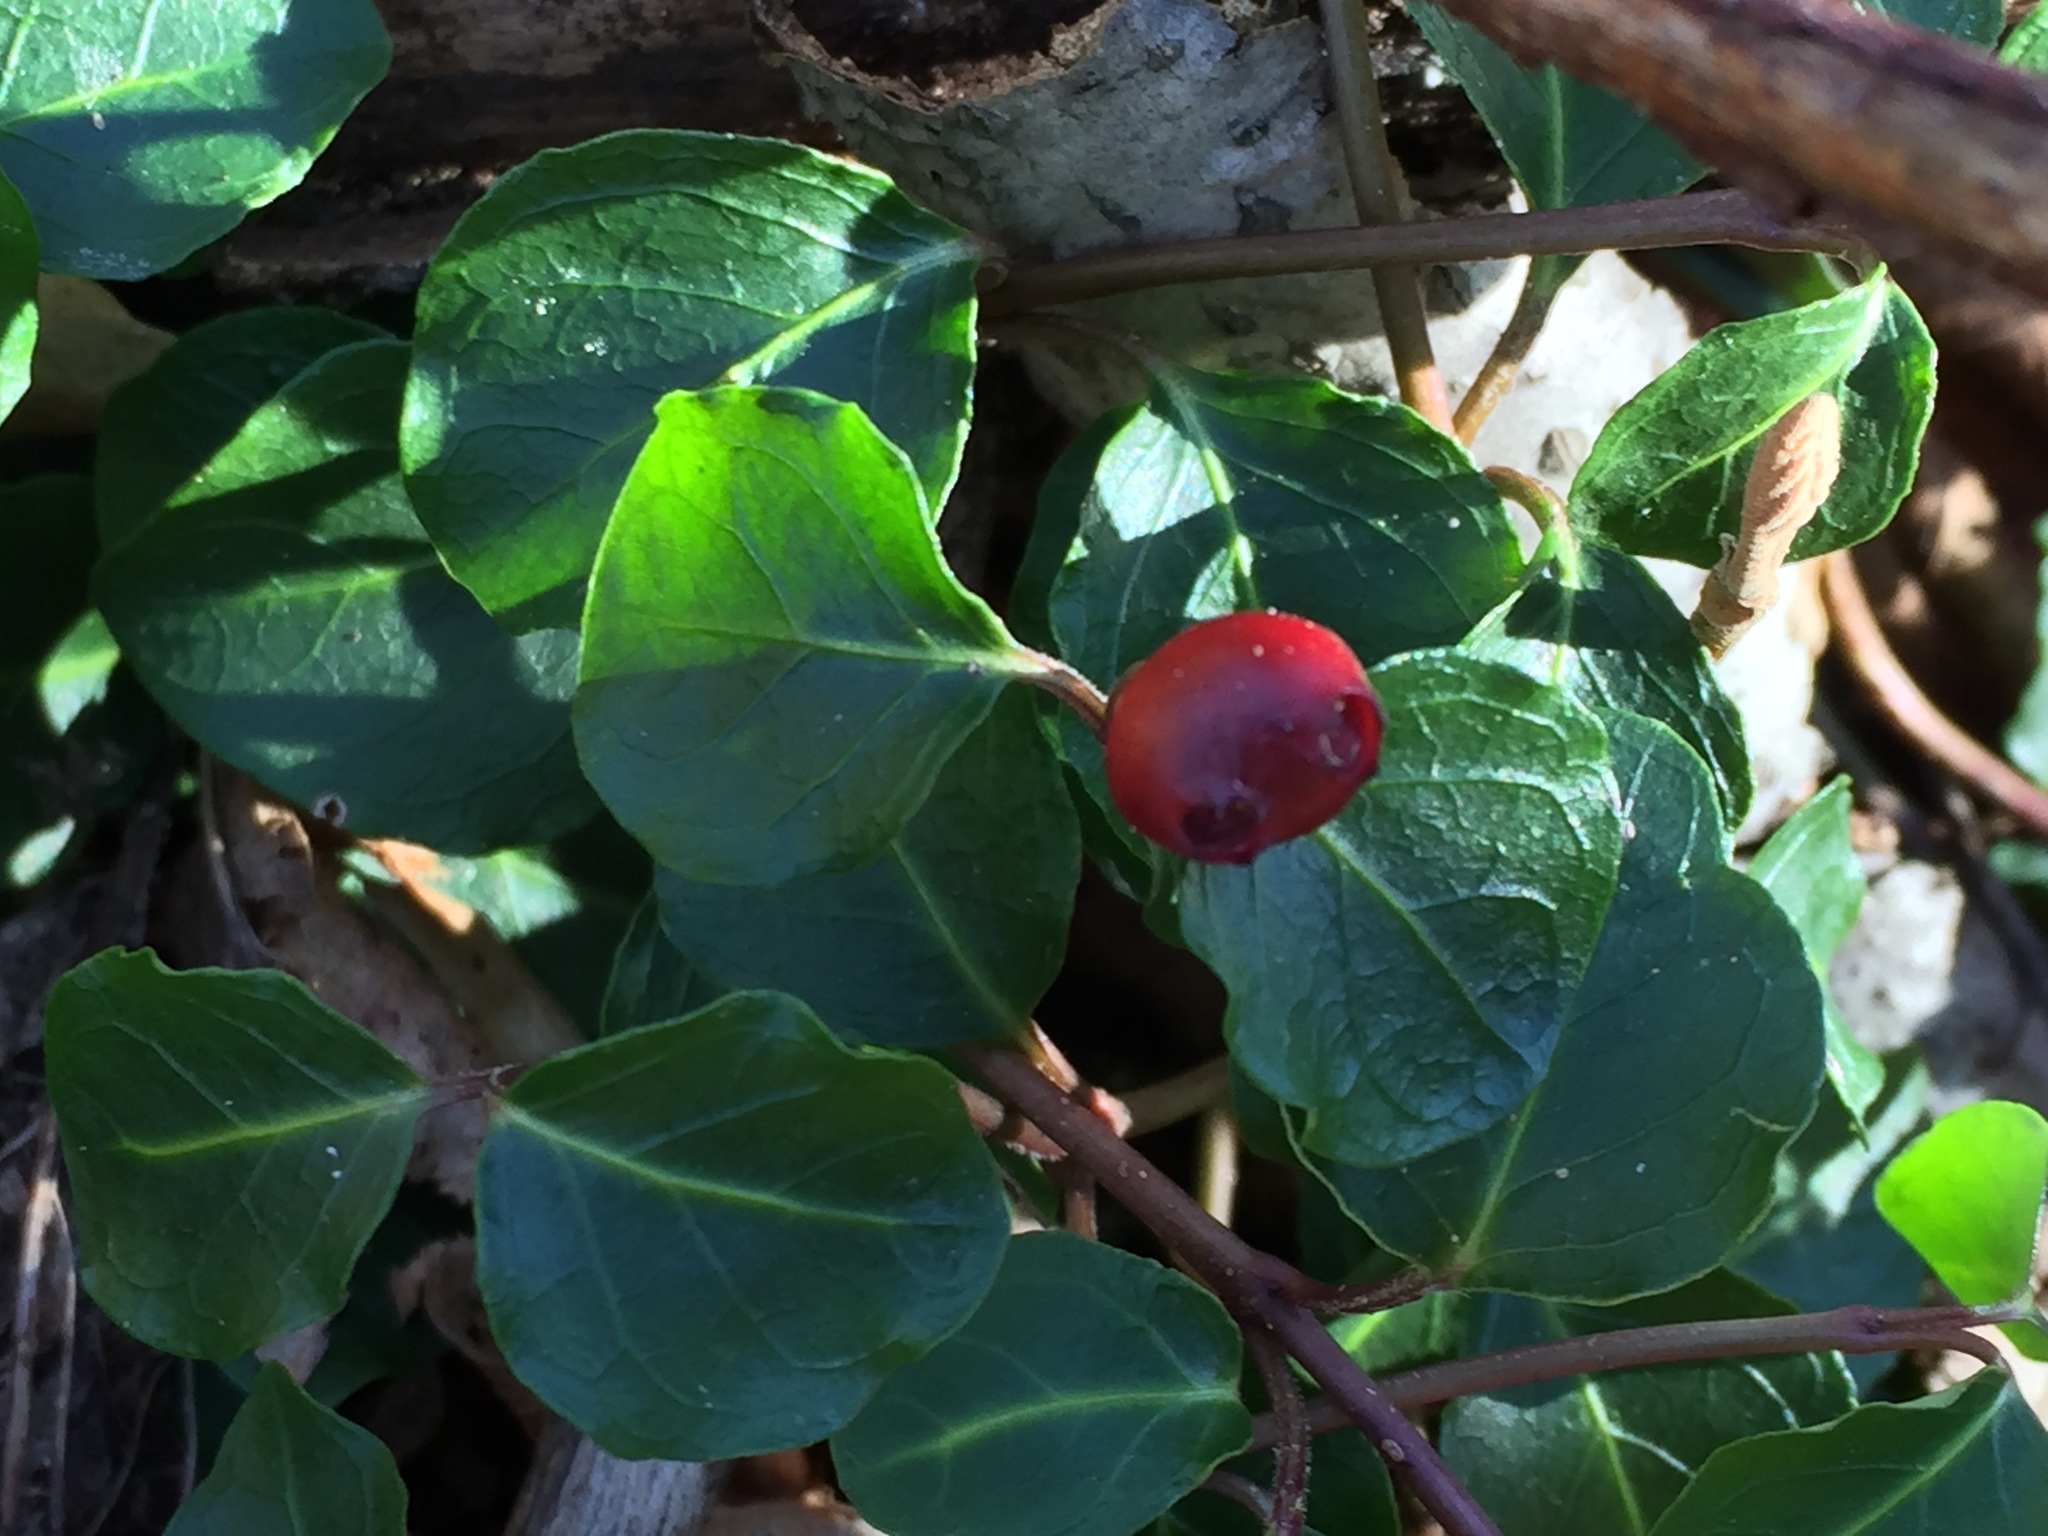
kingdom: Plantae
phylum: Tracheophyta
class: Magnoliopsida
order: Gentianales
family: Rubiaceae
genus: Mitchella
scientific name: Mitchella repens
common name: Partridge-berry
